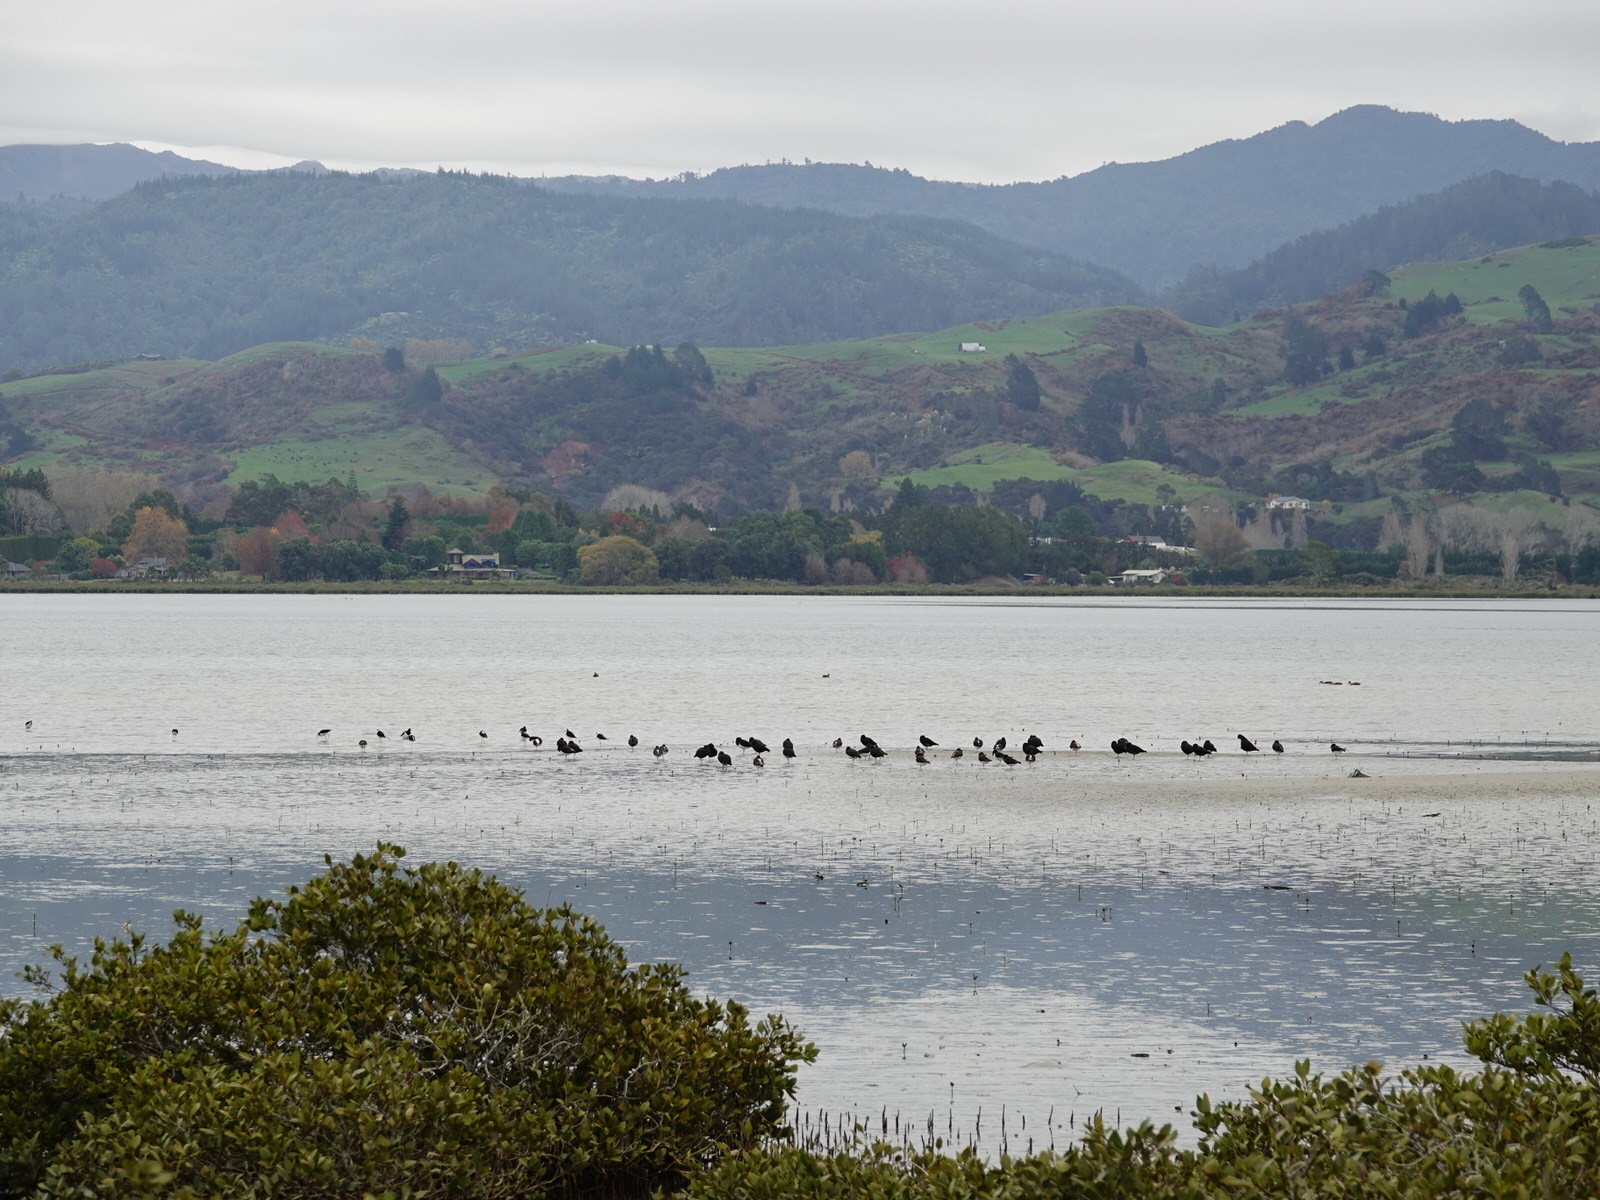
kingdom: Animalia
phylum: Chordata
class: Aves
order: Charadriiformes
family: Haematopodidae
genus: Haematopus
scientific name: Haematopus unicolor
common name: Variable oystercatcher
